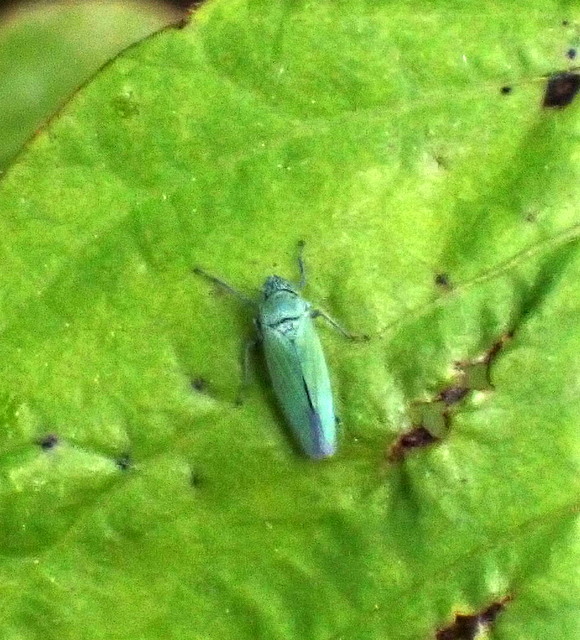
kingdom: Animalia
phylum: Arthropoda
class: Insecta
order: Hemiptera
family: Cicadellidae
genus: Draeculacephala
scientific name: Draeculacephala inscripta
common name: Leafhopper
